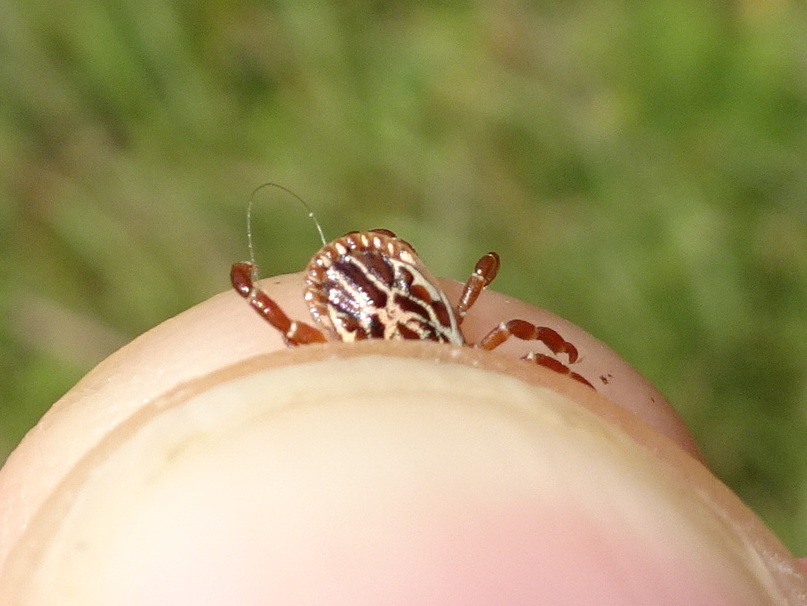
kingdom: Animalia
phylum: Arthropoda
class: Arachnida
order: Ixodida
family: Ixodidae
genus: Amblyomma
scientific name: Amblyomma maculatum
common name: Gulf coast tick
